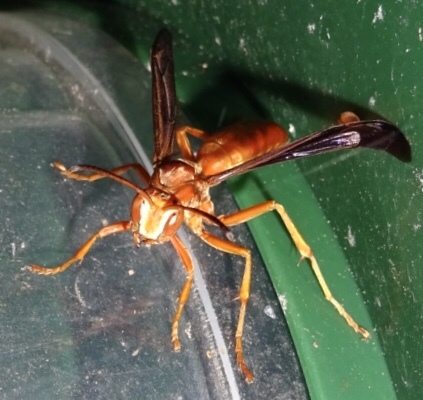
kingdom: Animalia
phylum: Arthropoda
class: Insecta
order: Hymenoptera
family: Eumenidae
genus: Polistes
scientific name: Polistes carolina
